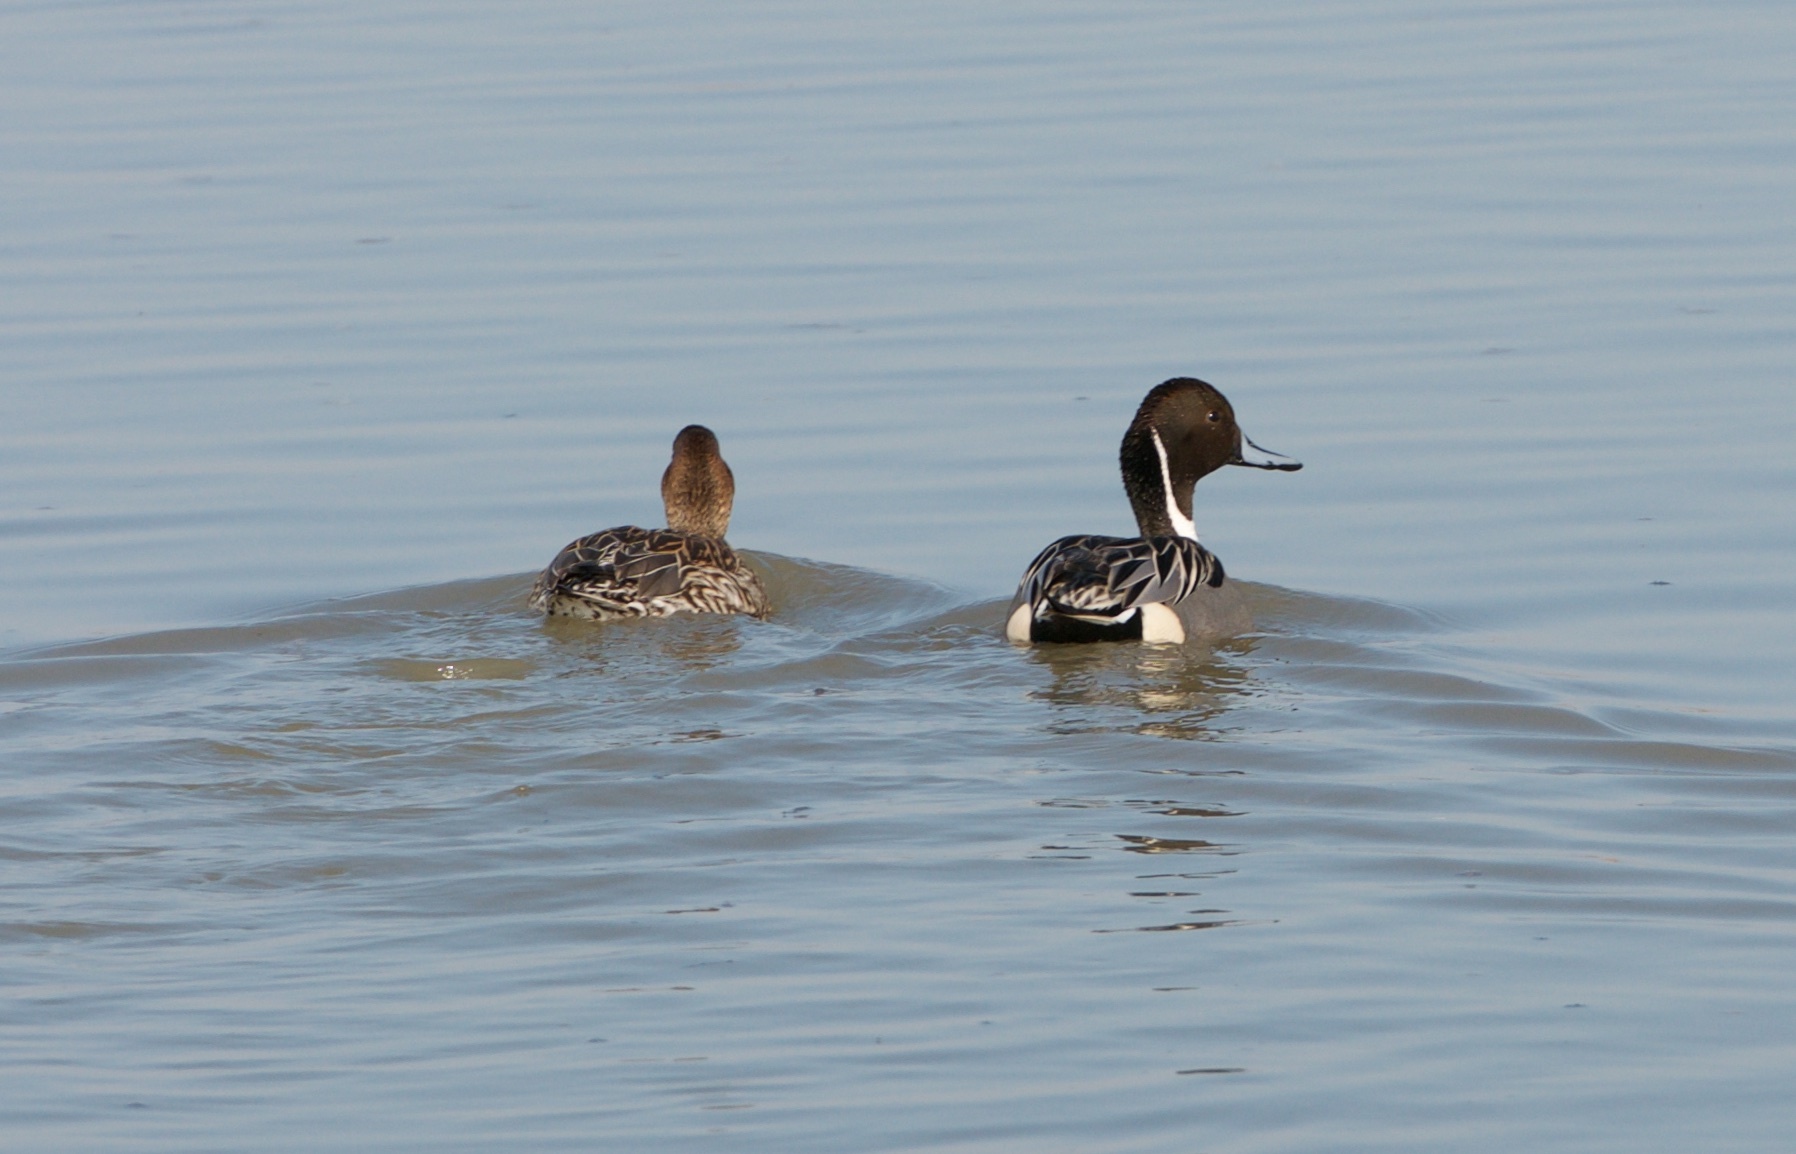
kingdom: Animalia
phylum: Chordata
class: Aves
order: Anseriformes
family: Anatidae
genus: Anas
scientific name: Anas acuta
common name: Northern pintail
